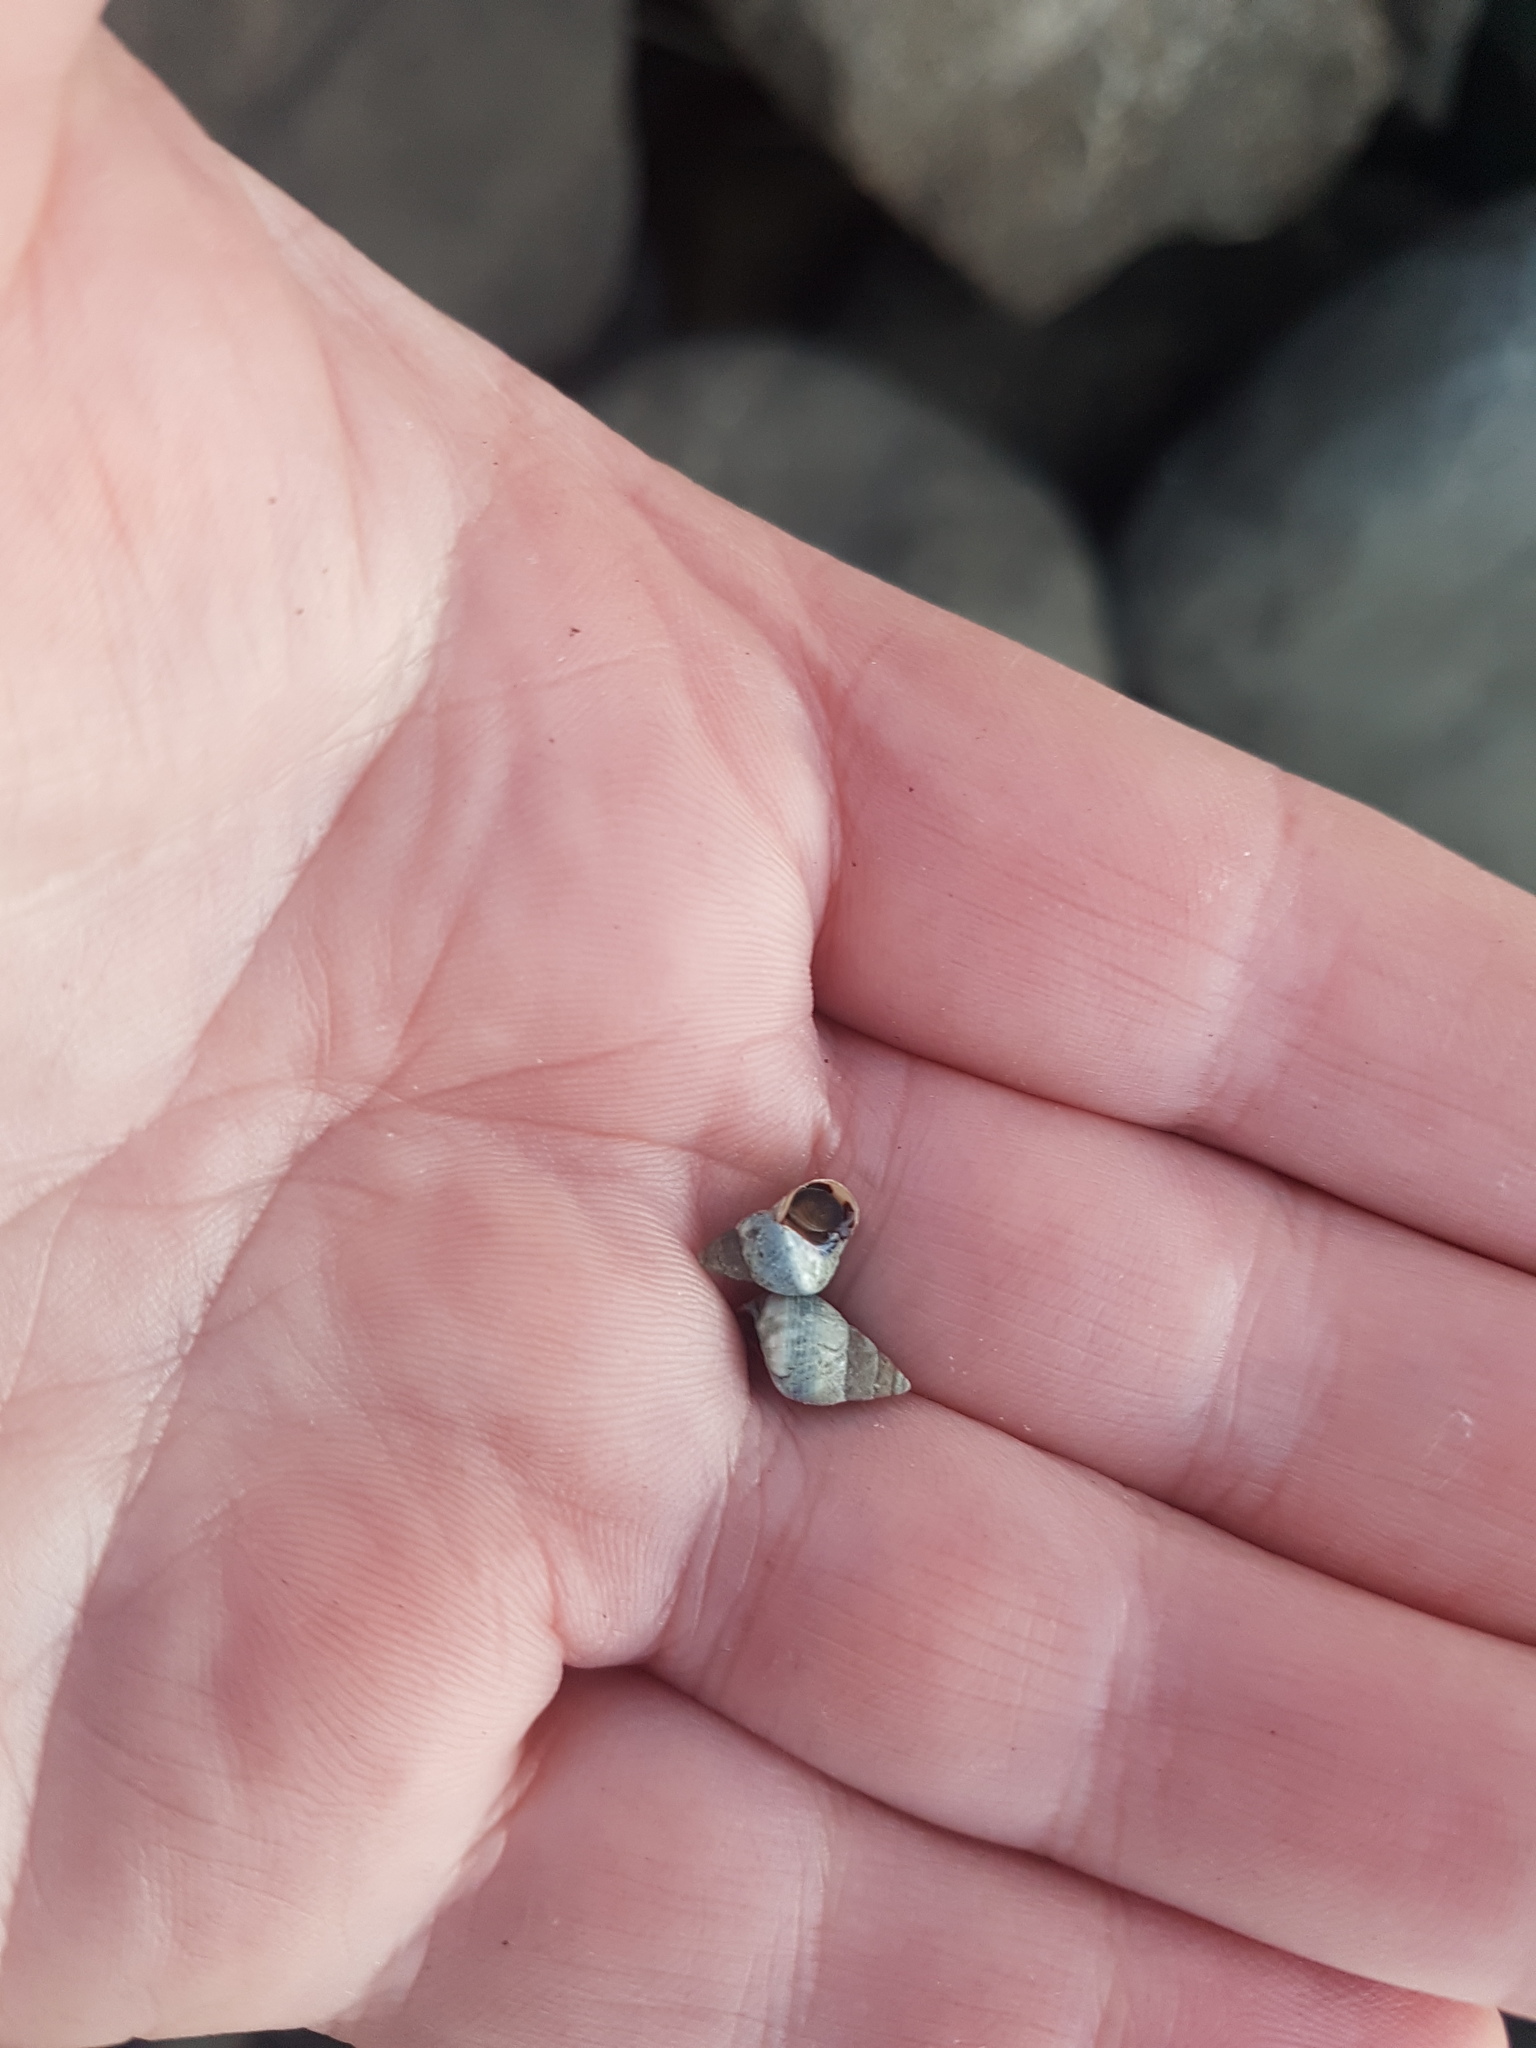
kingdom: Animalia
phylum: Mollusca
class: Gastropoda
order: Littorinimorpha
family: Littorinidae
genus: Austrolittorina
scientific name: Austrolittorina antipodum
